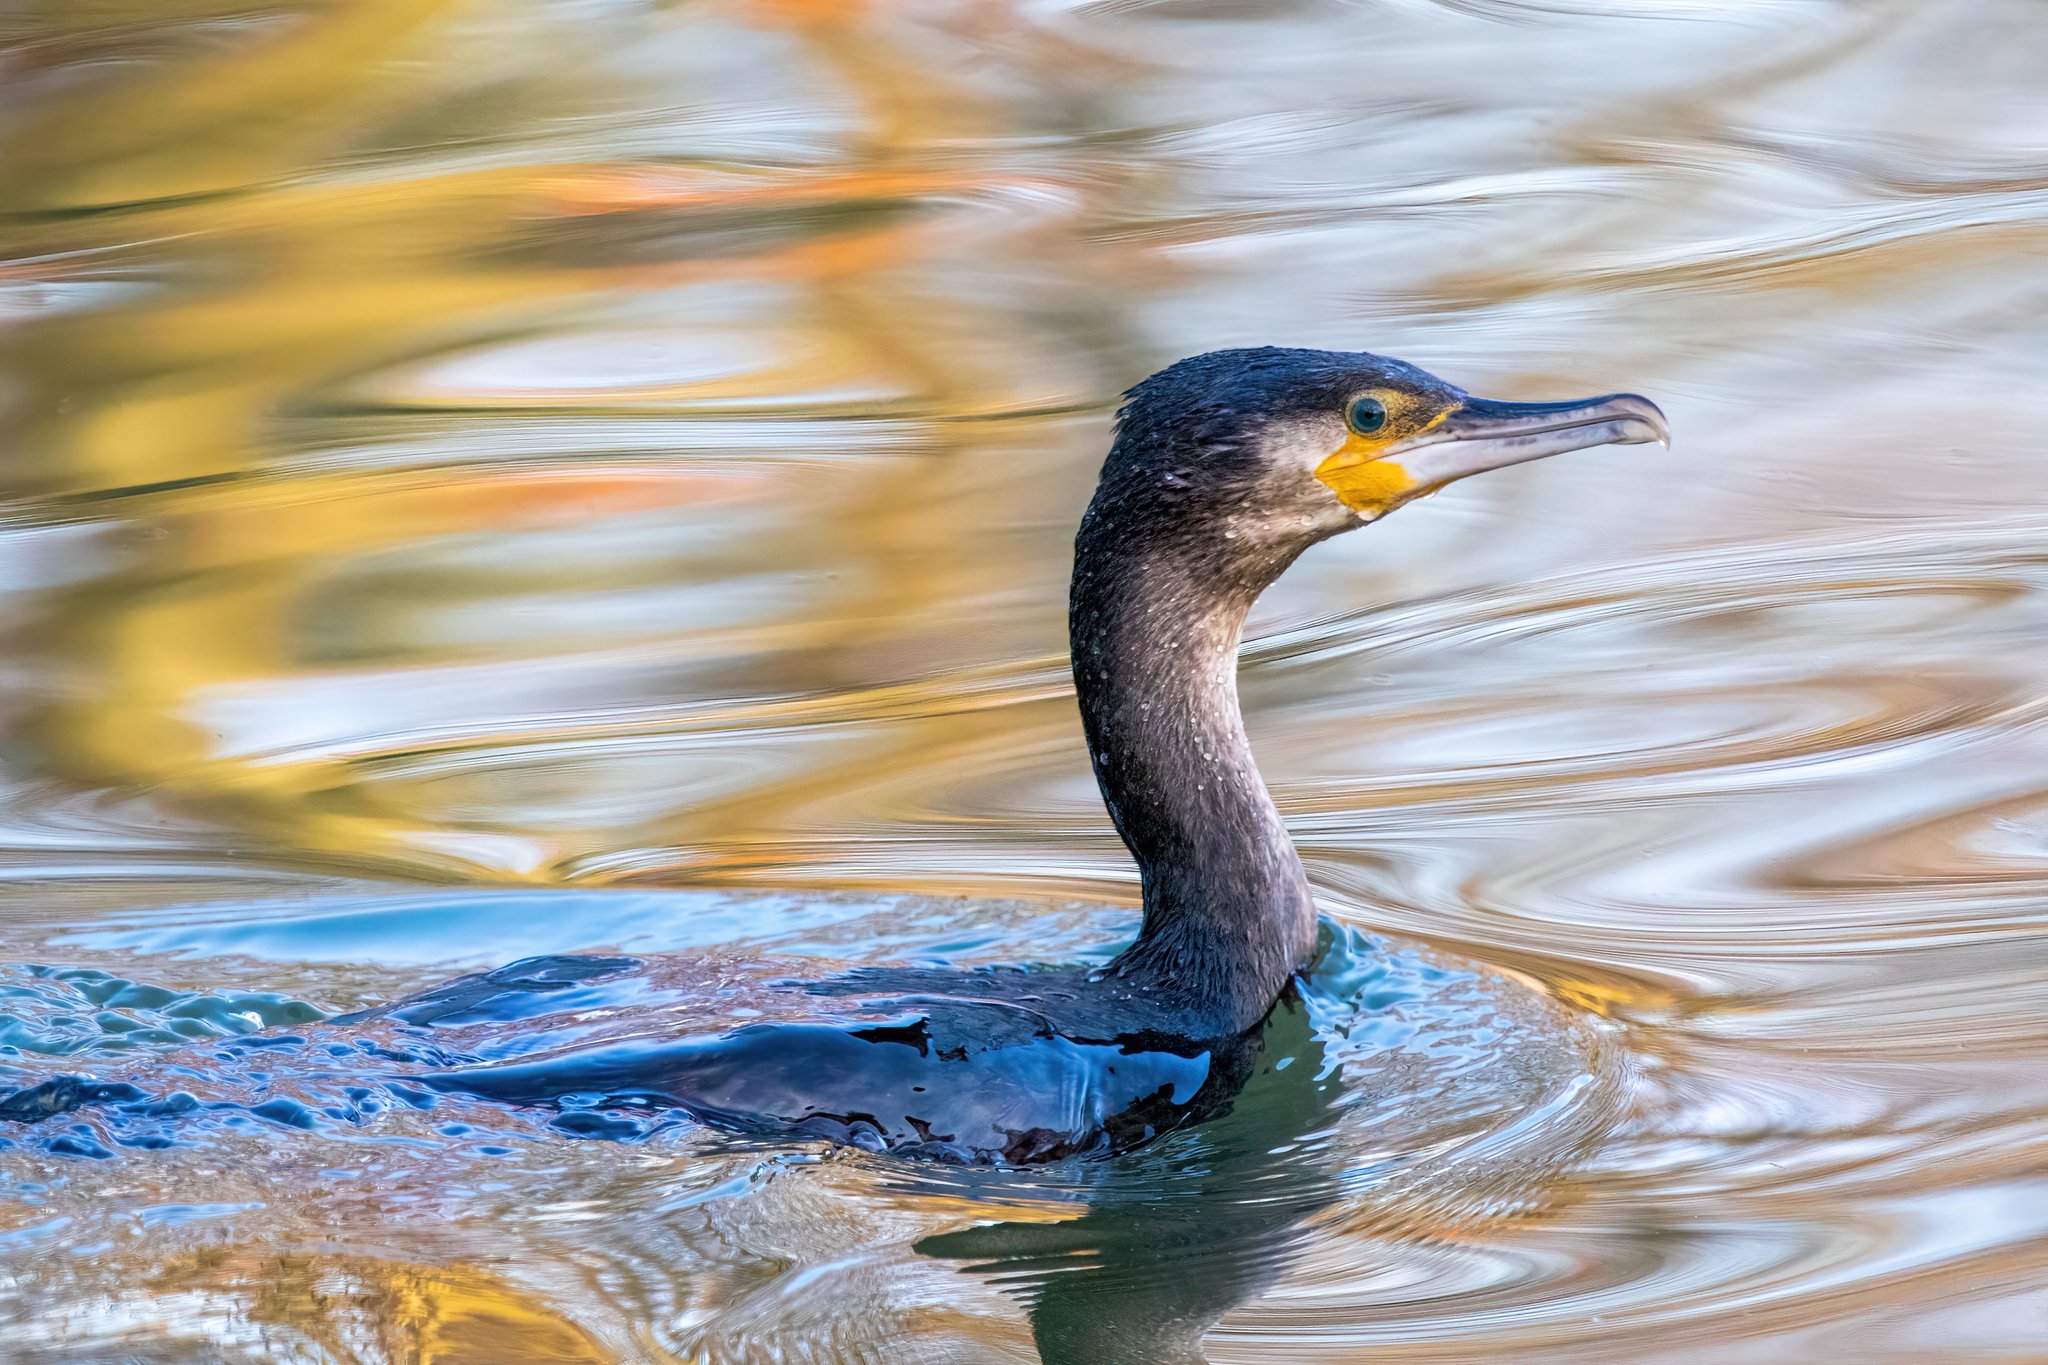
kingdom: Animalia
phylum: Chordata
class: Aves
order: Suliformes
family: Phalacrocoracidae
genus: Phalacrocorax
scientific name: Phalacrocorax carbo
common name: Great cormorant
